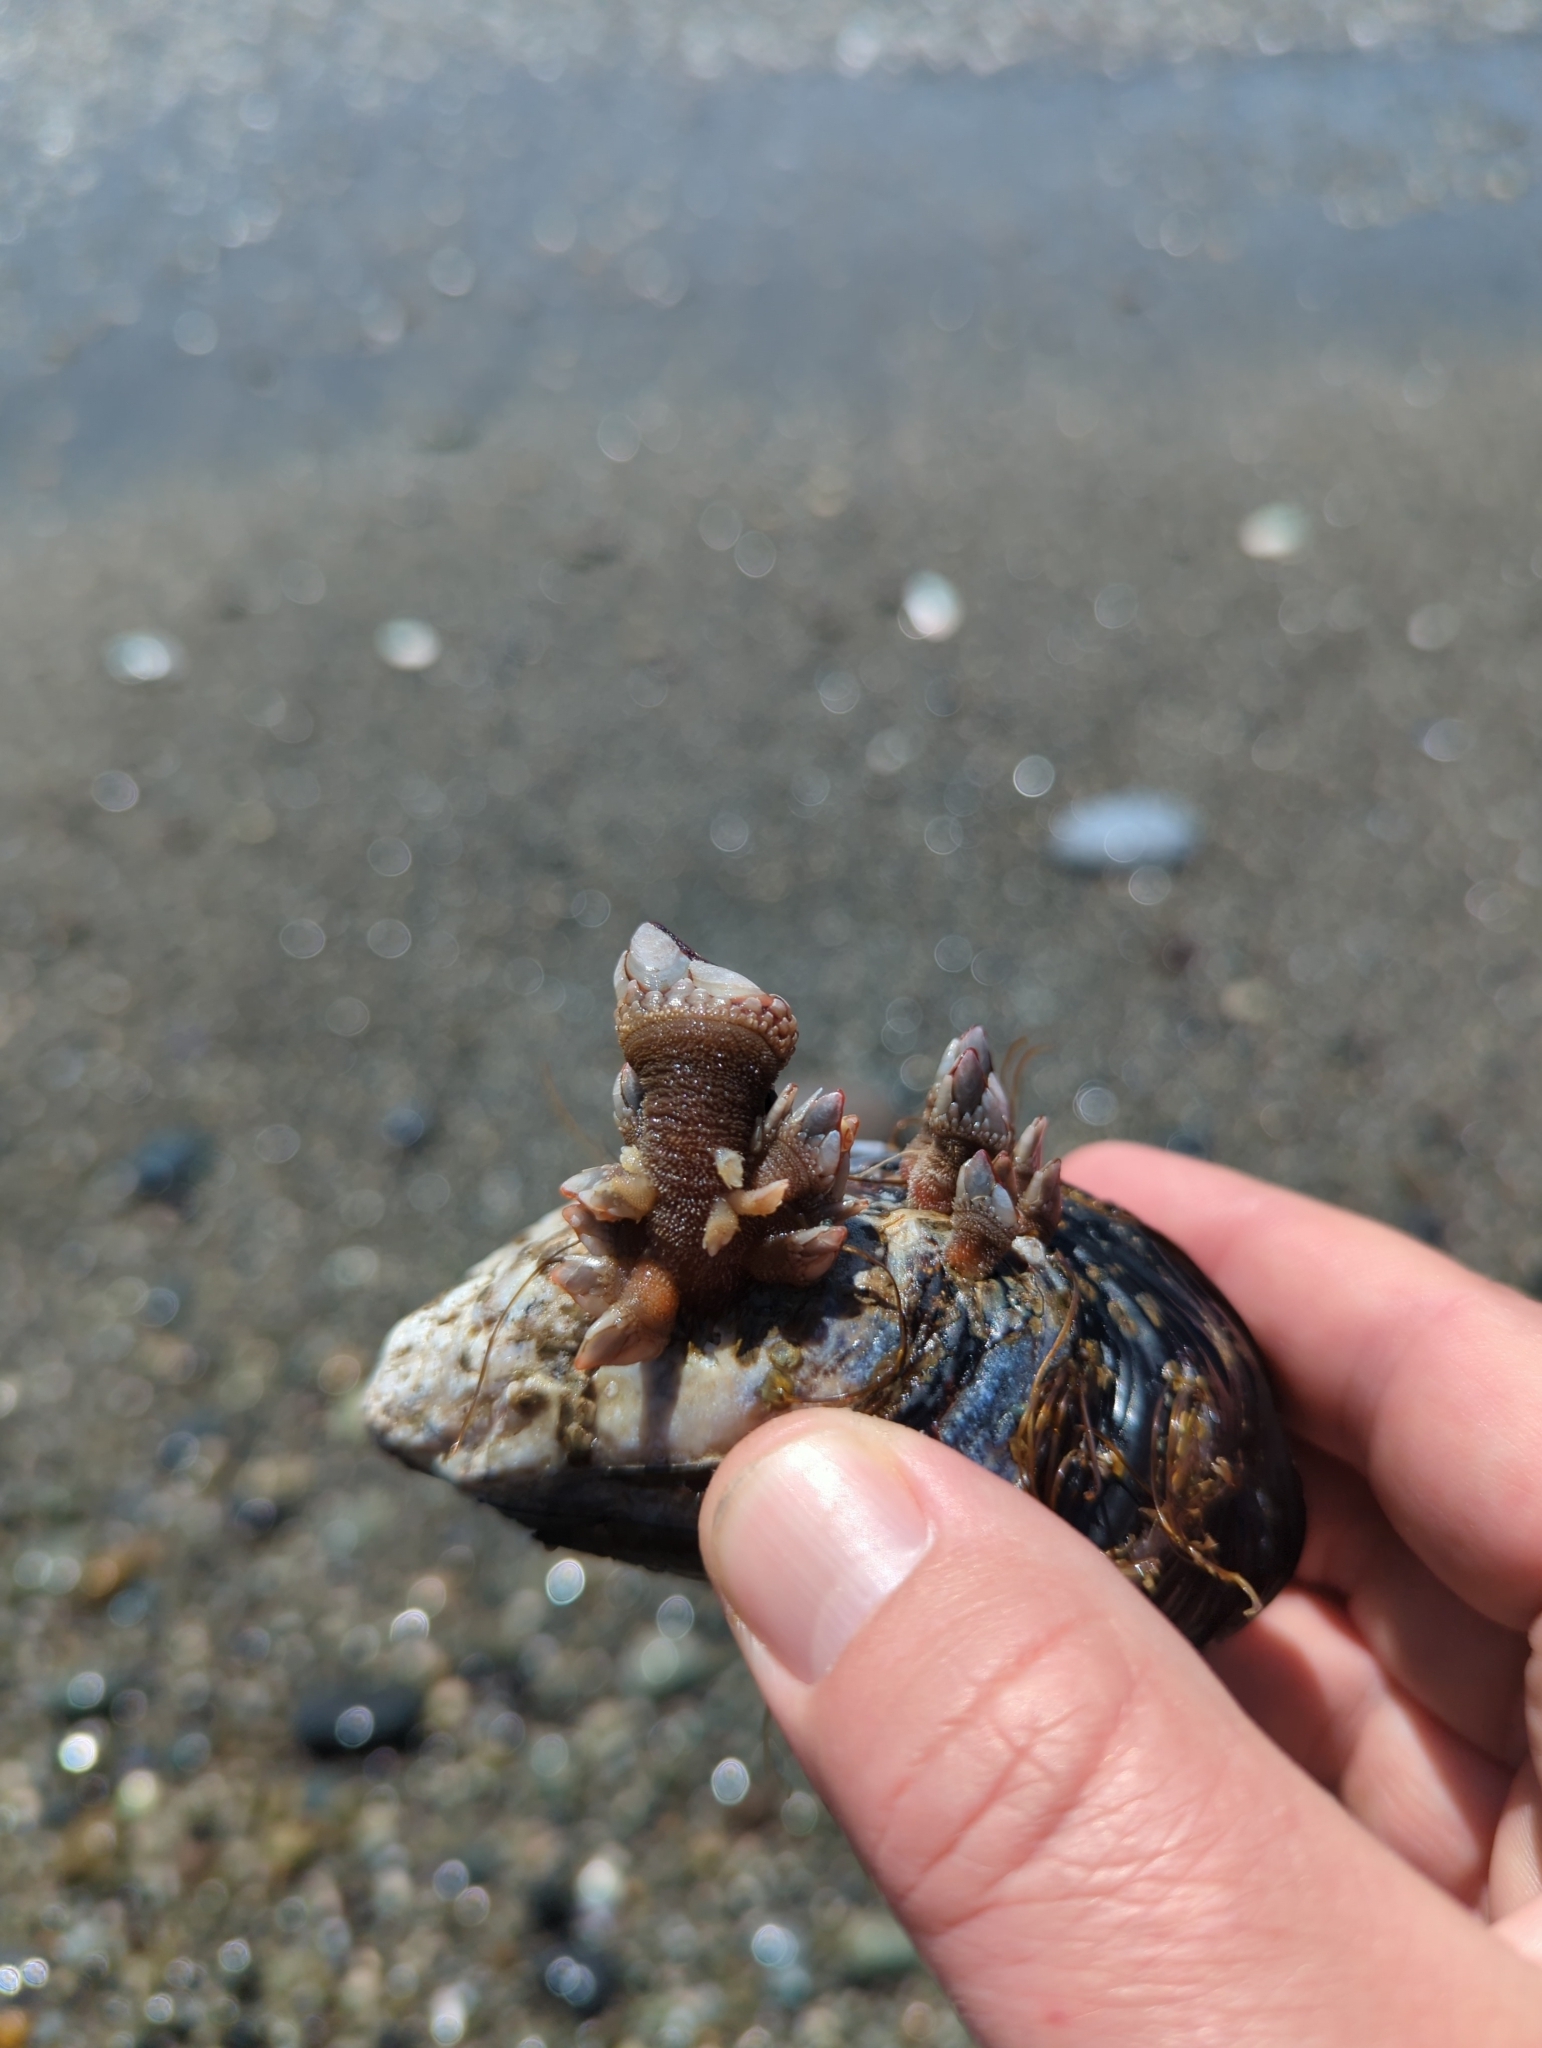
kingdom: Animalia
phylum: Arthropoda
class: Maxillopoda
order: Pedunculata
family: Pollicipedidae
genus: Pollicipes
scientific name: Pollicipes polymerus
